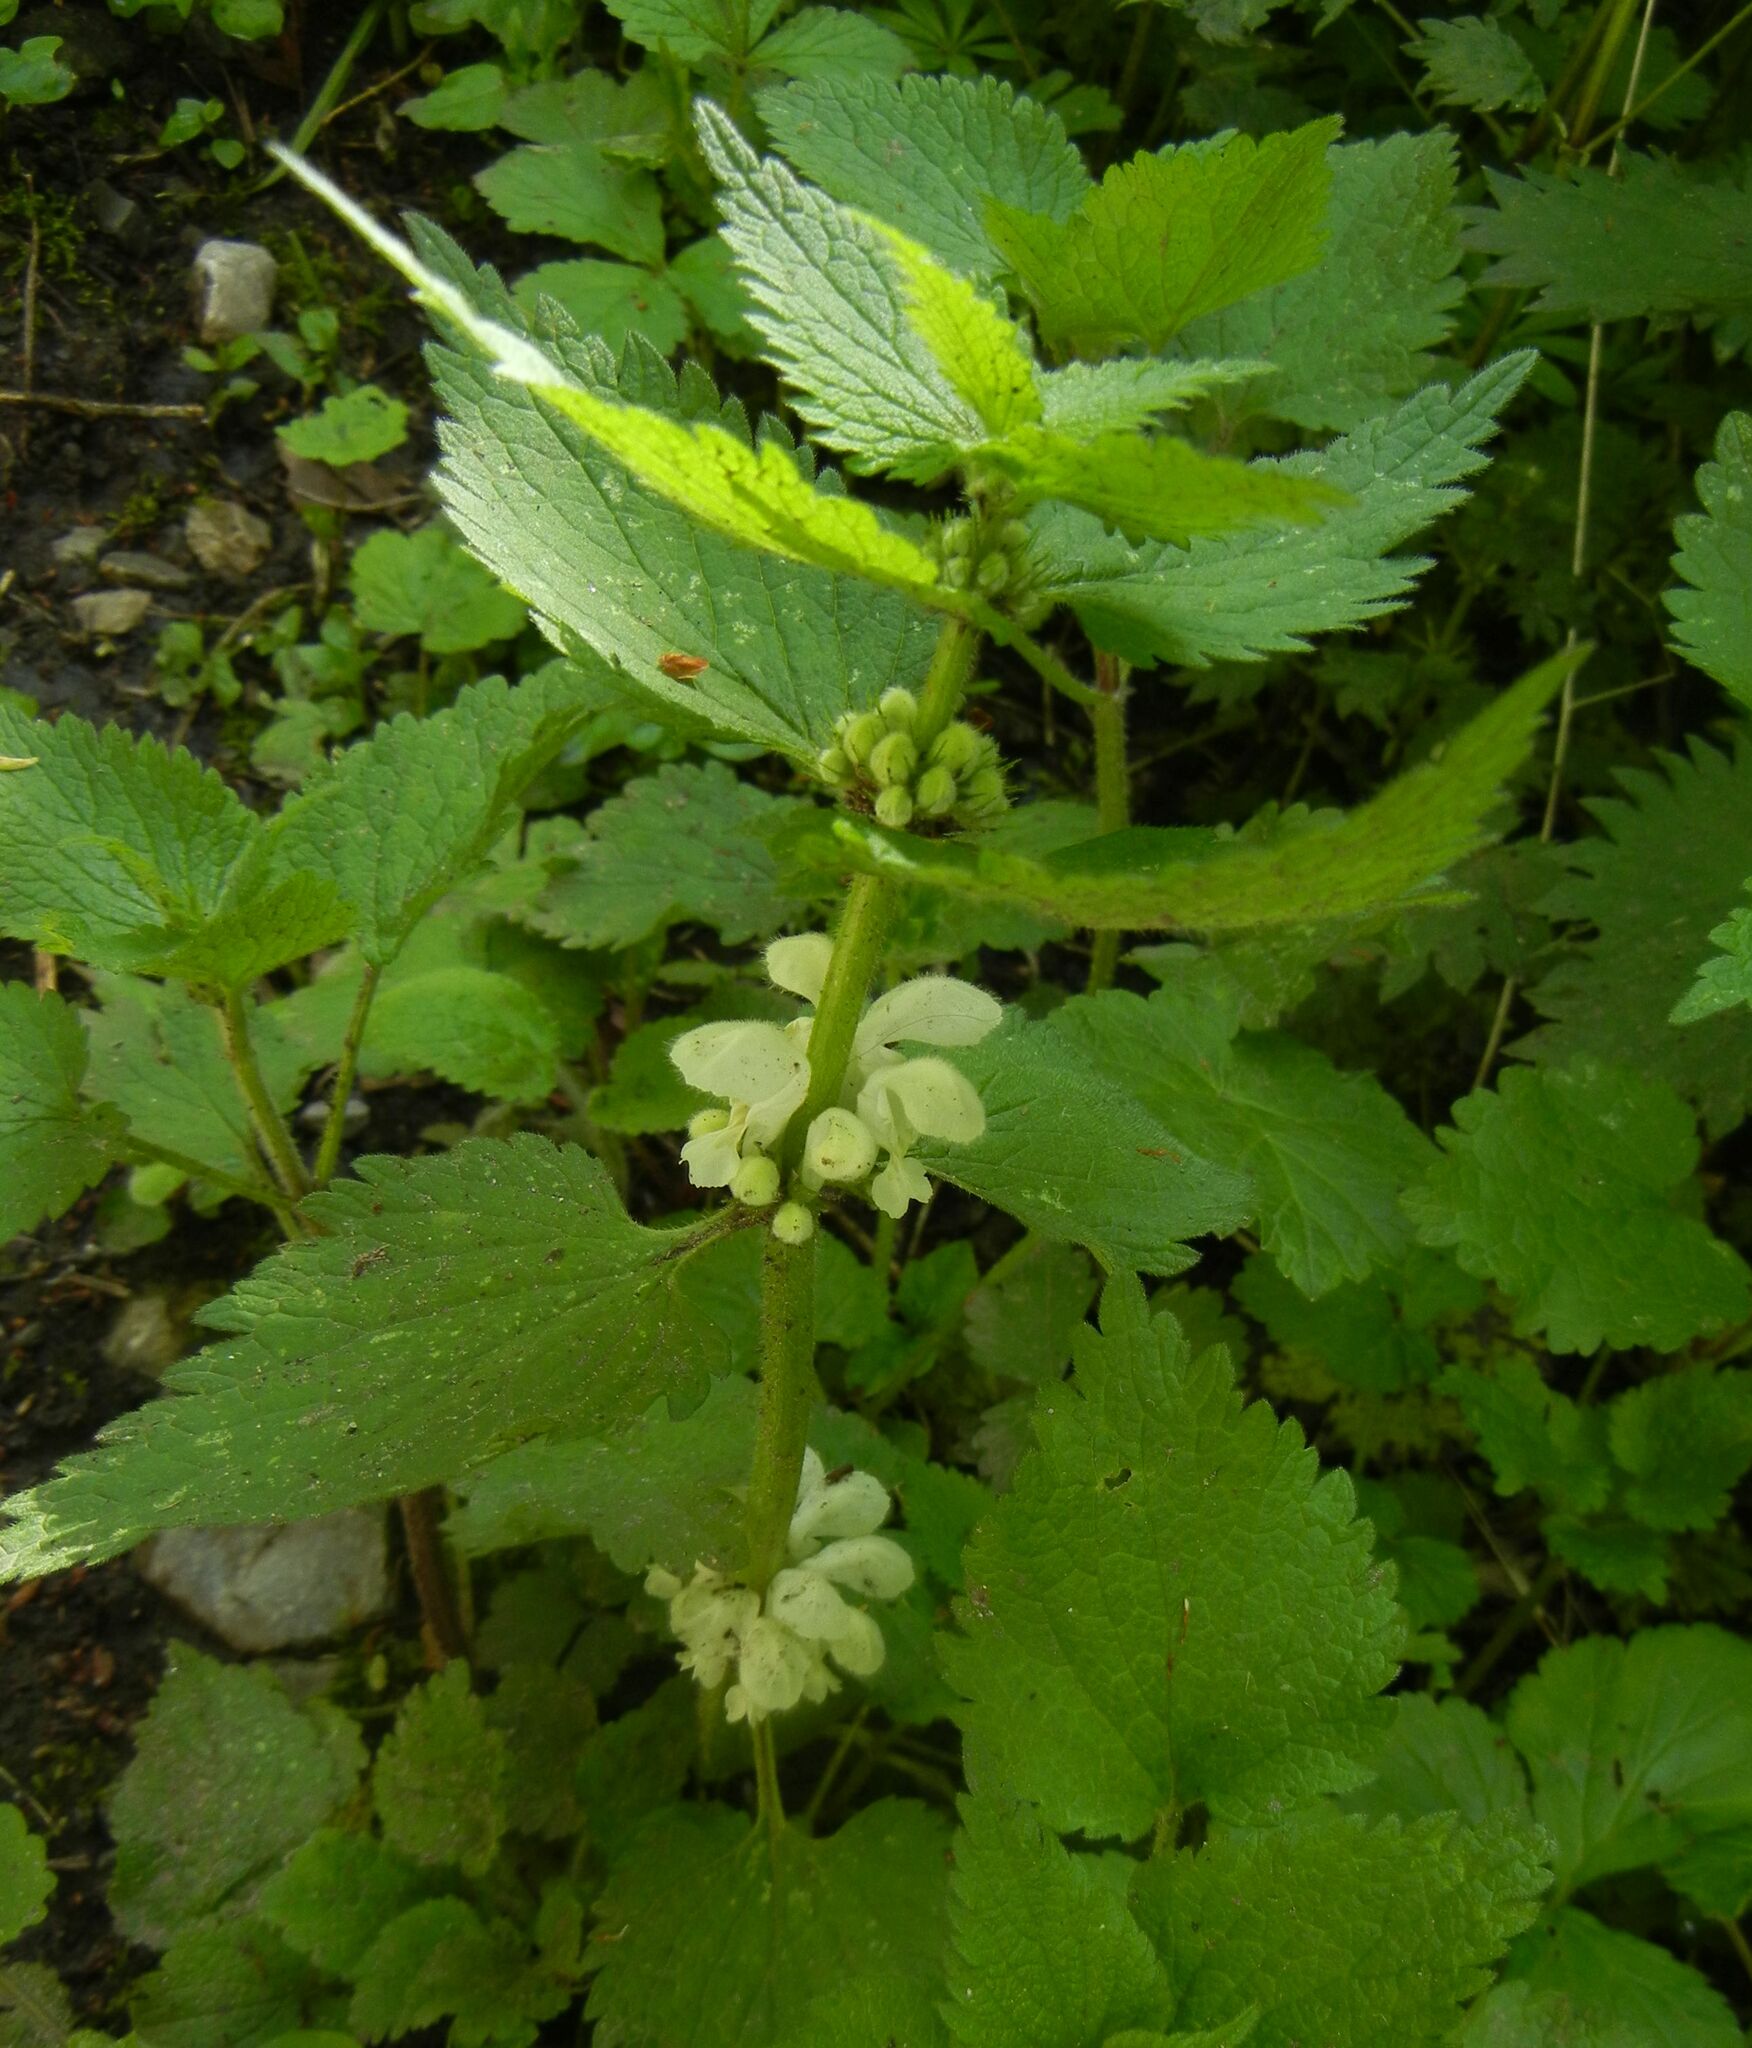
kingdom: Plantae
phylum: Tracheophyta
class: Magnoliopsida
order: Lamiales
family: Lamiaceae
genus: Lamium
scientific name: Lamium album
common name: White dead-nettle
